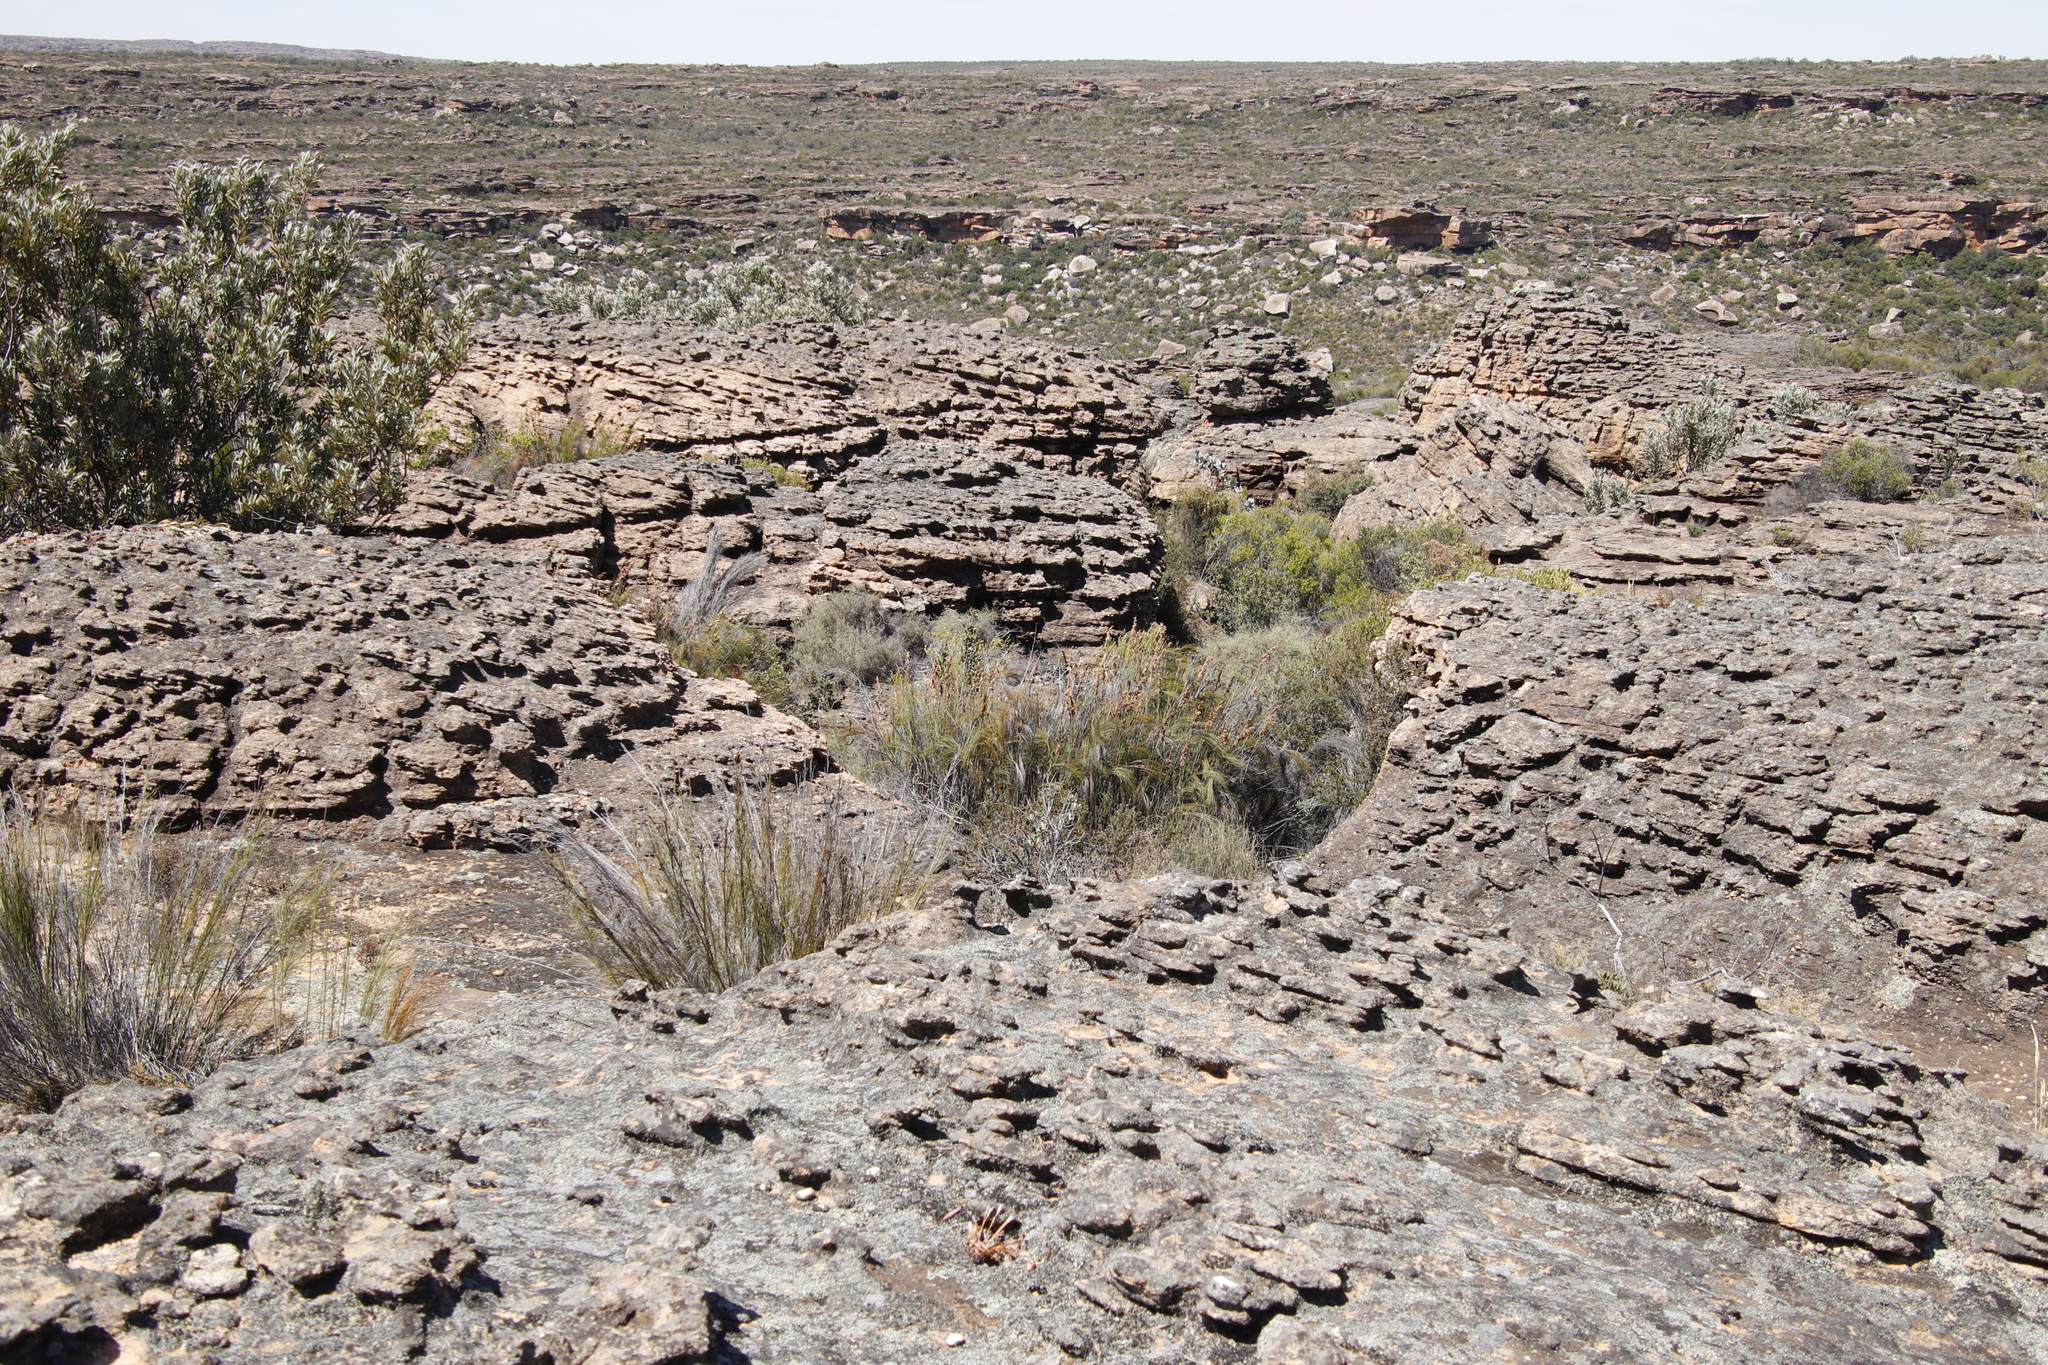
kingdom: Plantae
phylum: Tracheophyta
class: Liliopsida
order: Poales
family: Restionaceae
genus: Cannomois
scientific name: Cannomois robusta
